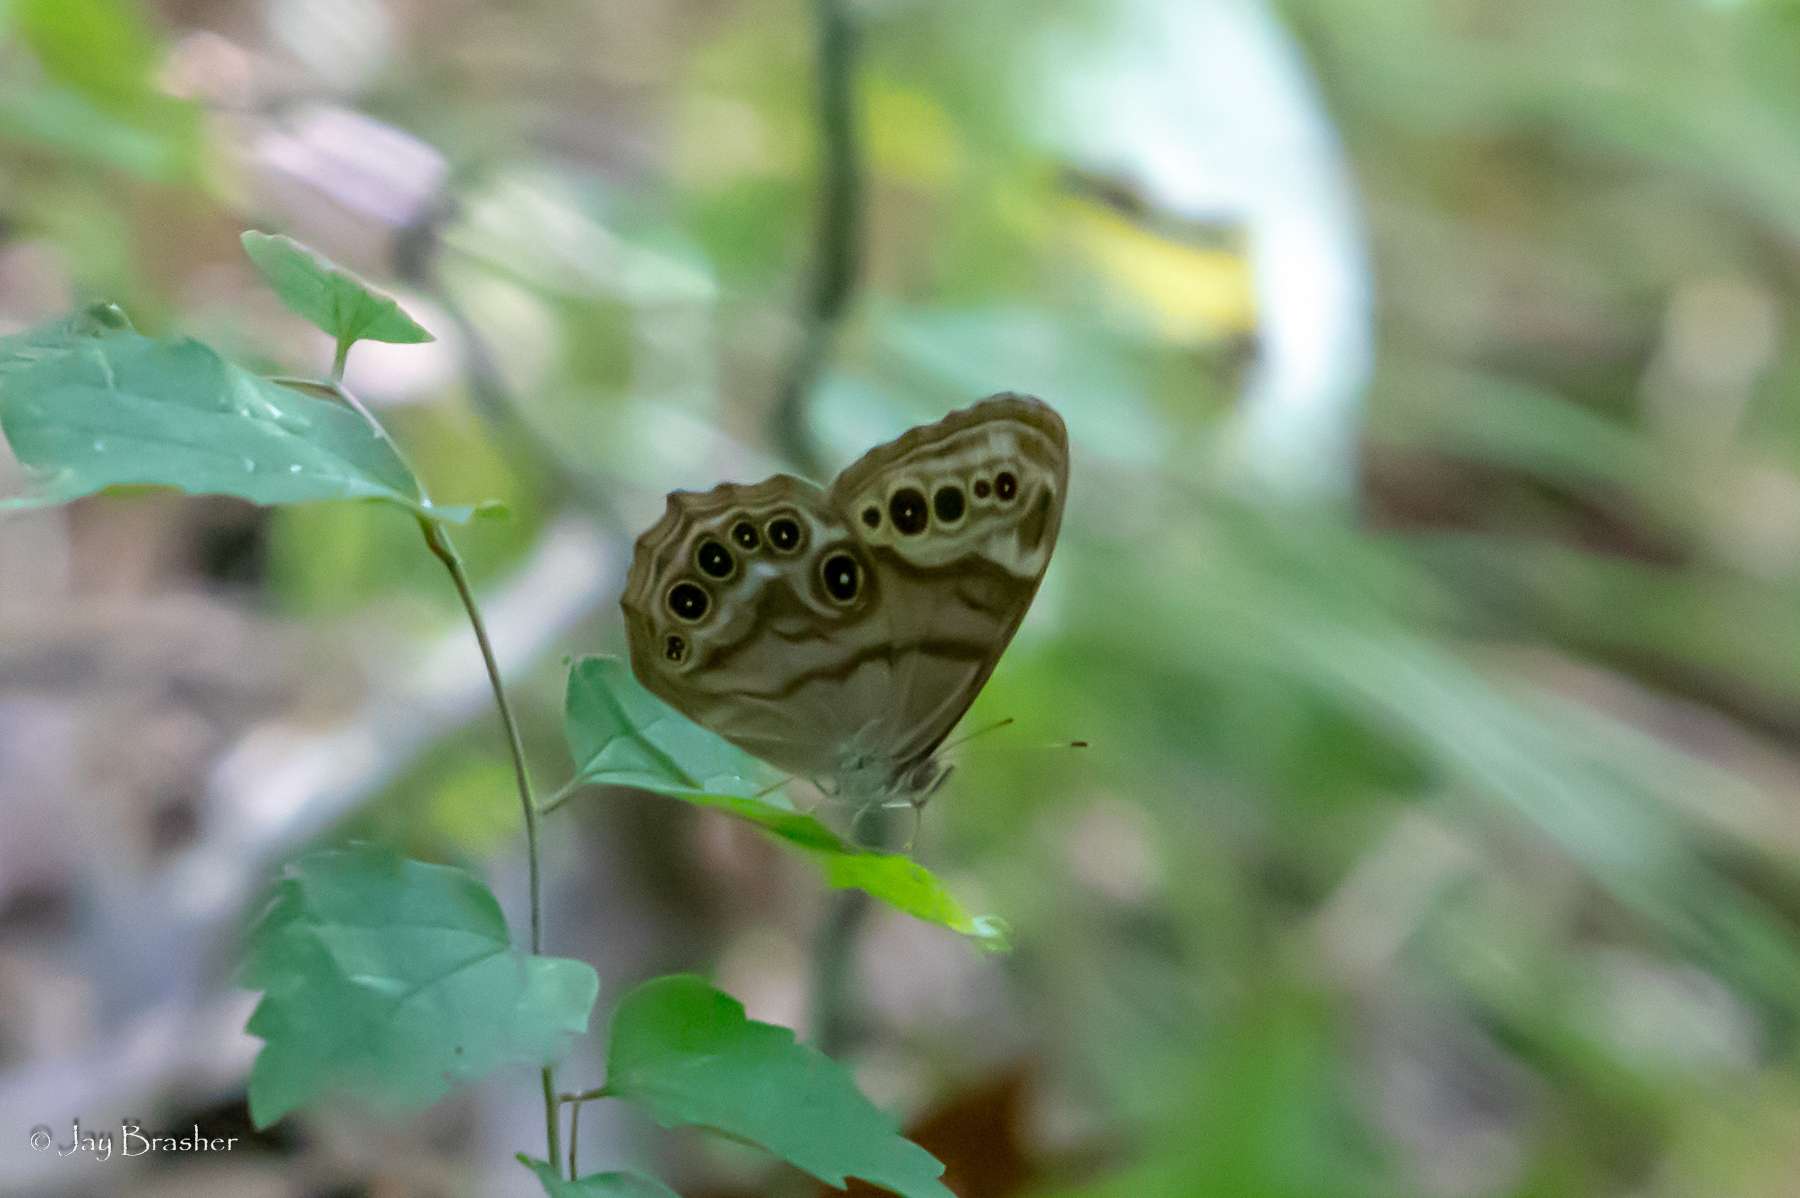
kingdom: Animalia
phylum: Arthropoda
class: Insecta
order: Lepidoptera
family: Nymphalidae
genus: Lethe
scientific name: Lethe anthedon
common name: Northern pearly-eye
